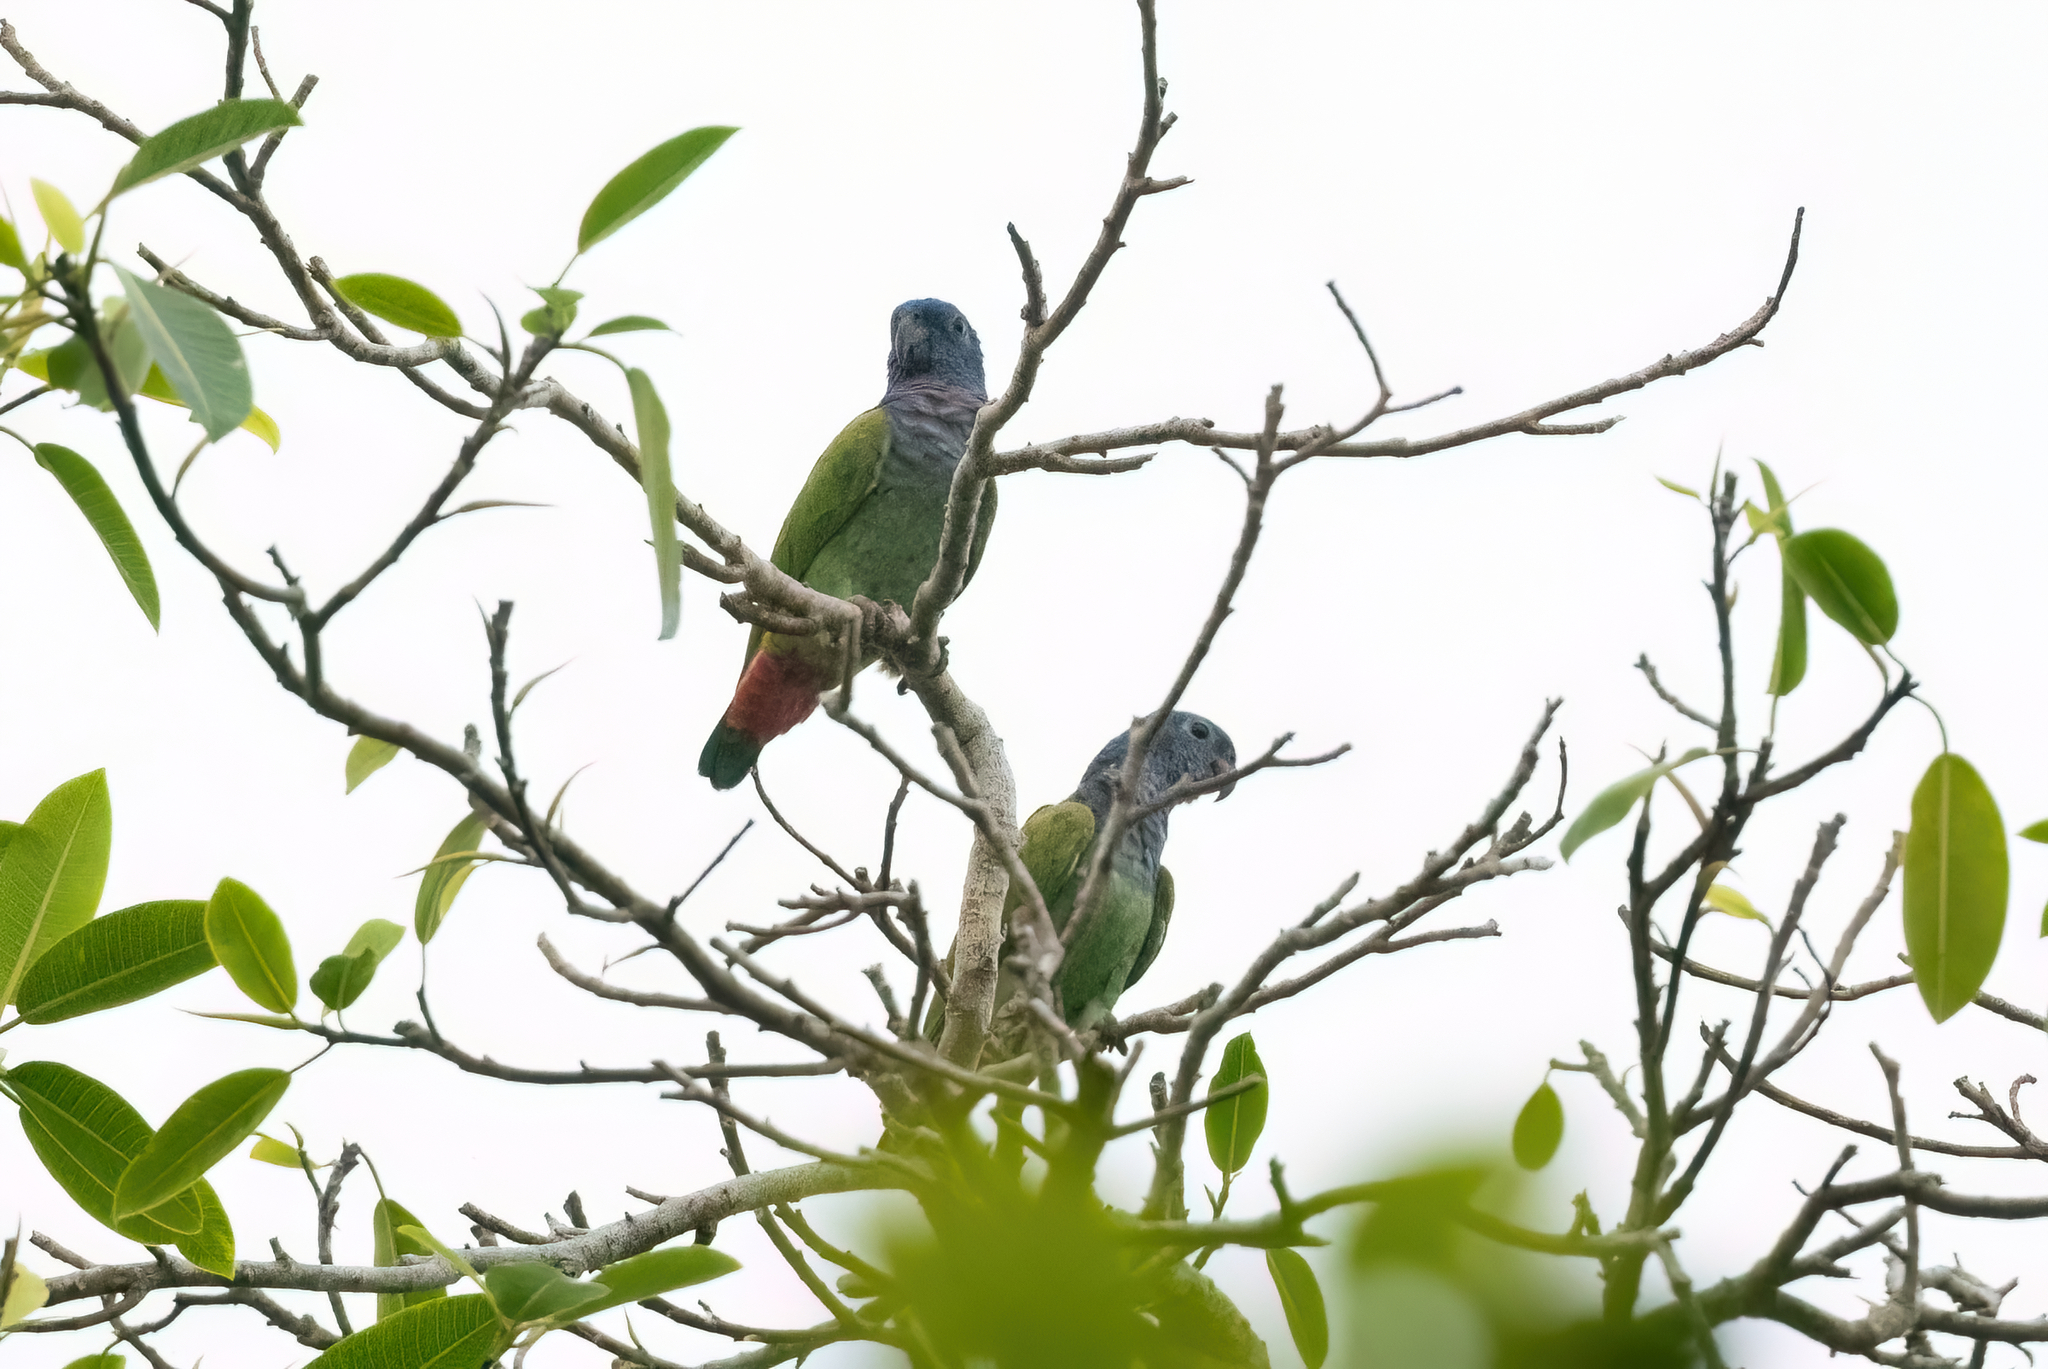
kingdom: Animalia
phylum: Chordata
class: Aves
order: Psittaciformes
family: Psittacidae
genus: Pionus
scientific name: Pionus menstruus
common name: Blue-headed parrot
